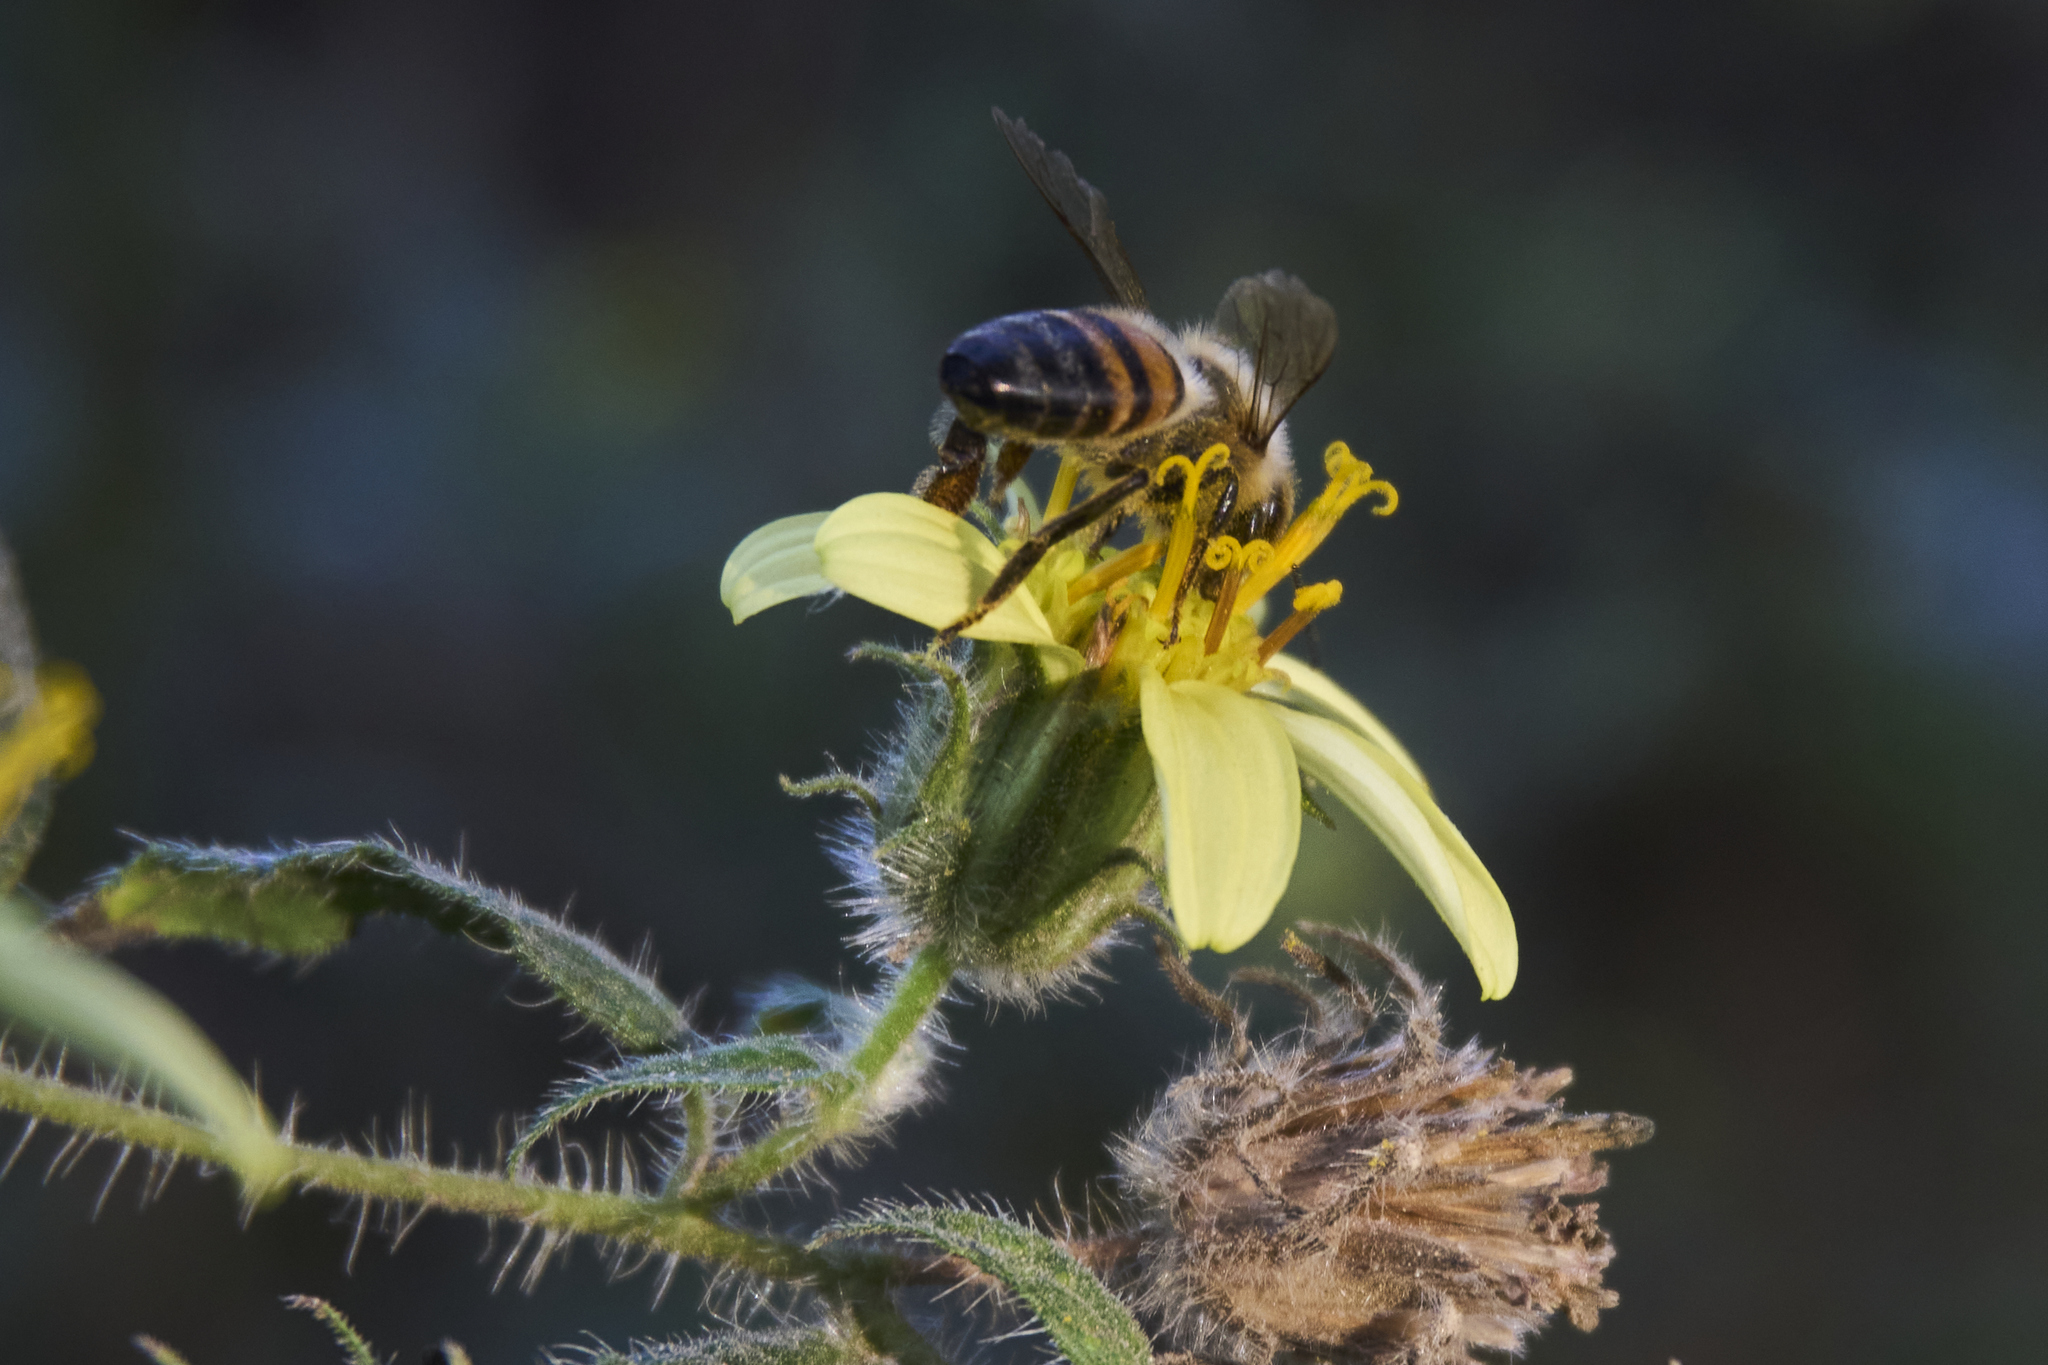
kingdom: Animalia
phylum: Arthropoda
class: Insecta
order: Hymenoptera
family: Apidae
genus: Apis
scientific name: Apis mellifera
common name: Honey bee
